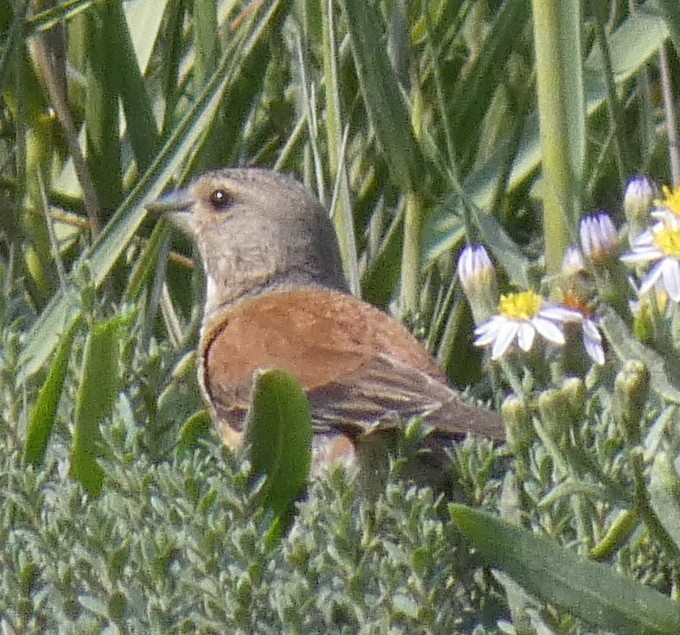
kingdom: Animalia
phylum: Chordata
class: Aves
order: Passeriformes
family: Fringillidae
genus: Linaria
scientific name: Linaria cannabina
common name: Common linnet
